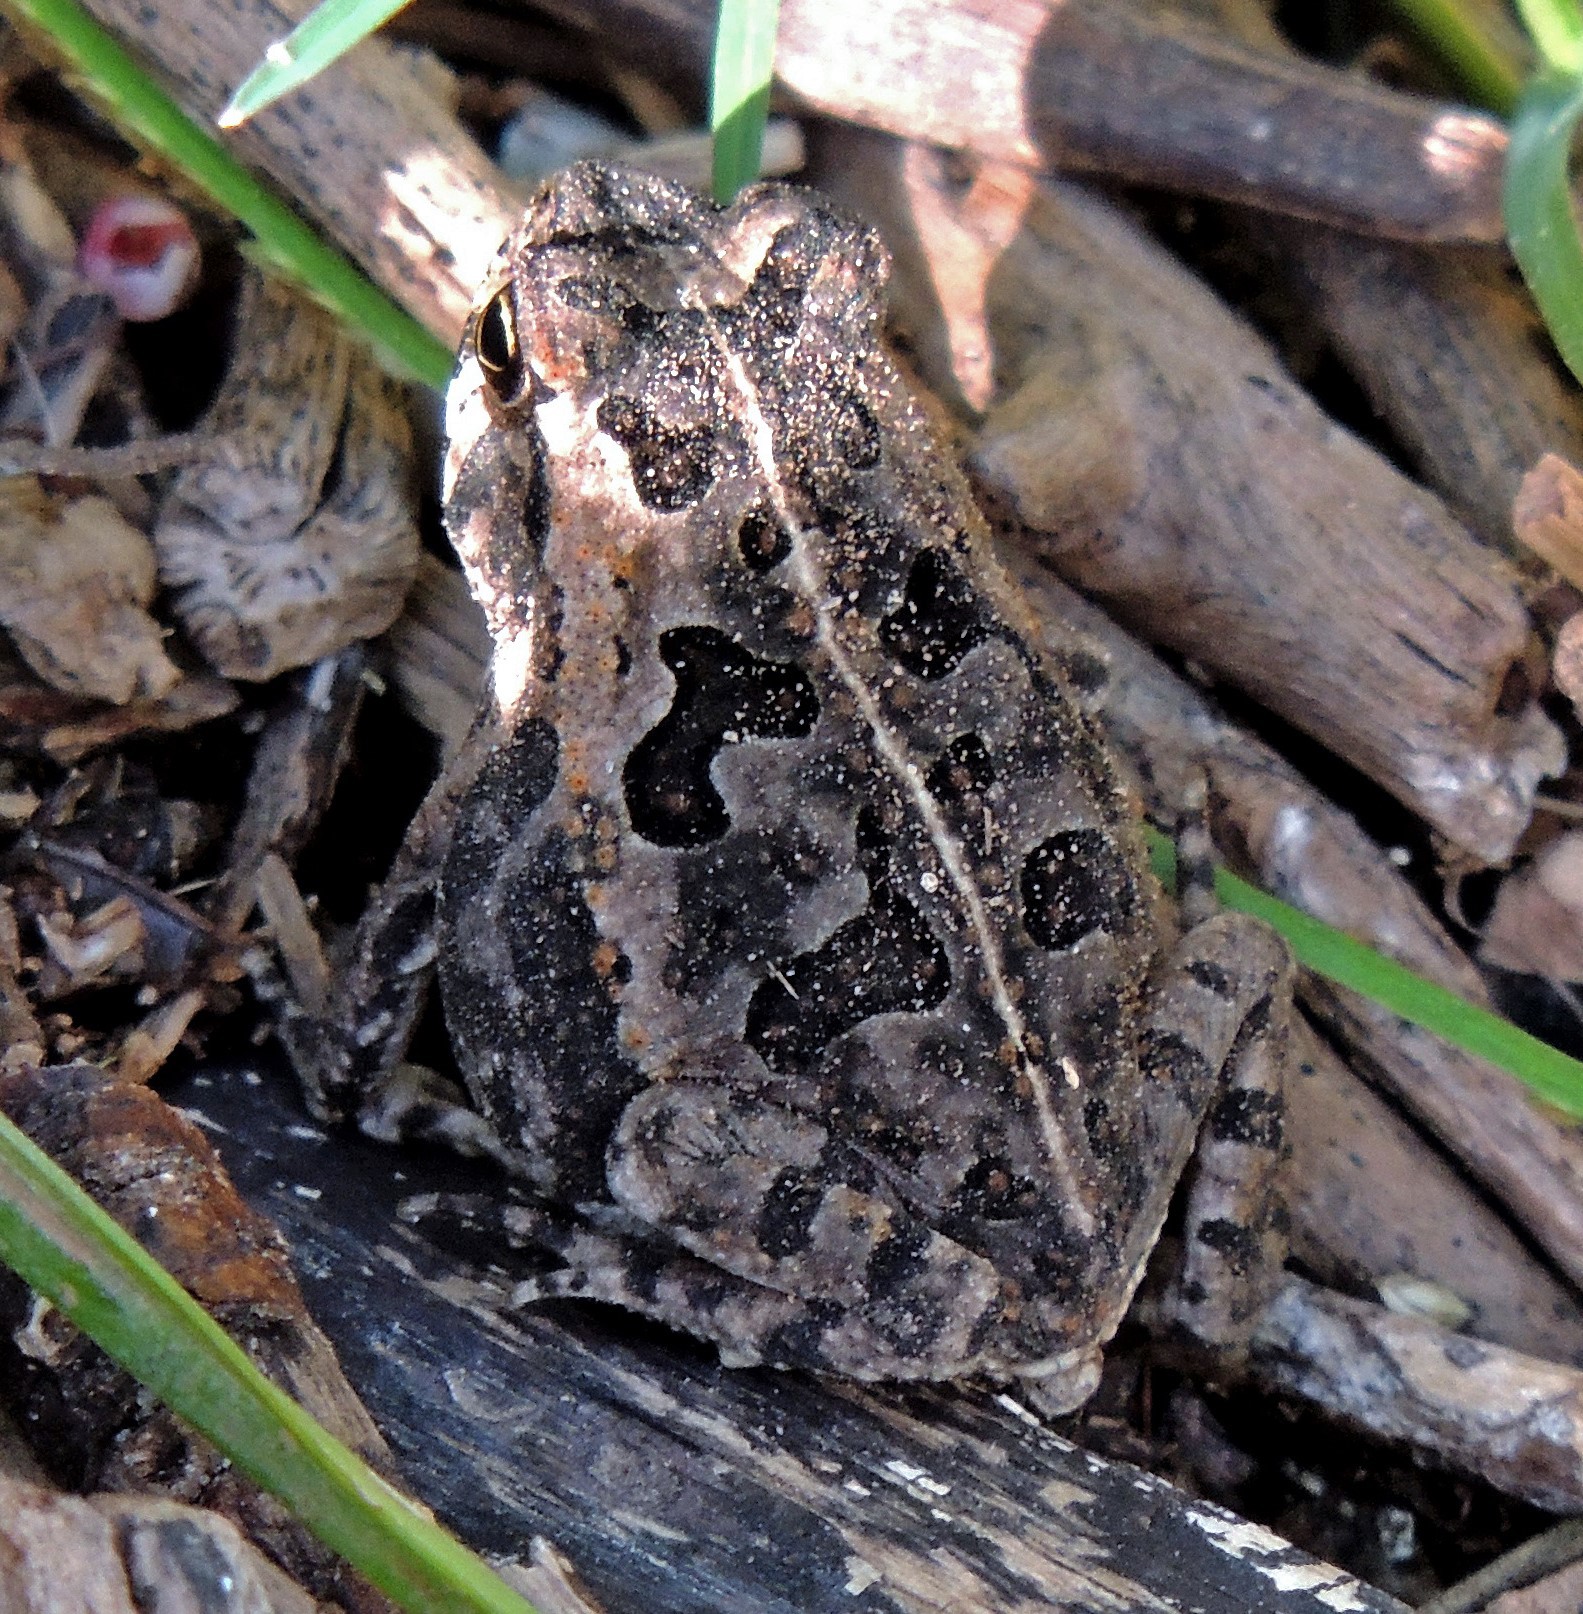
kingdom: Animalia
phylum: Chordata
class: Amphibia
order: Anura
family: Bufonidae
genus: Rhinella
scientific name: Rhinella arenarum
